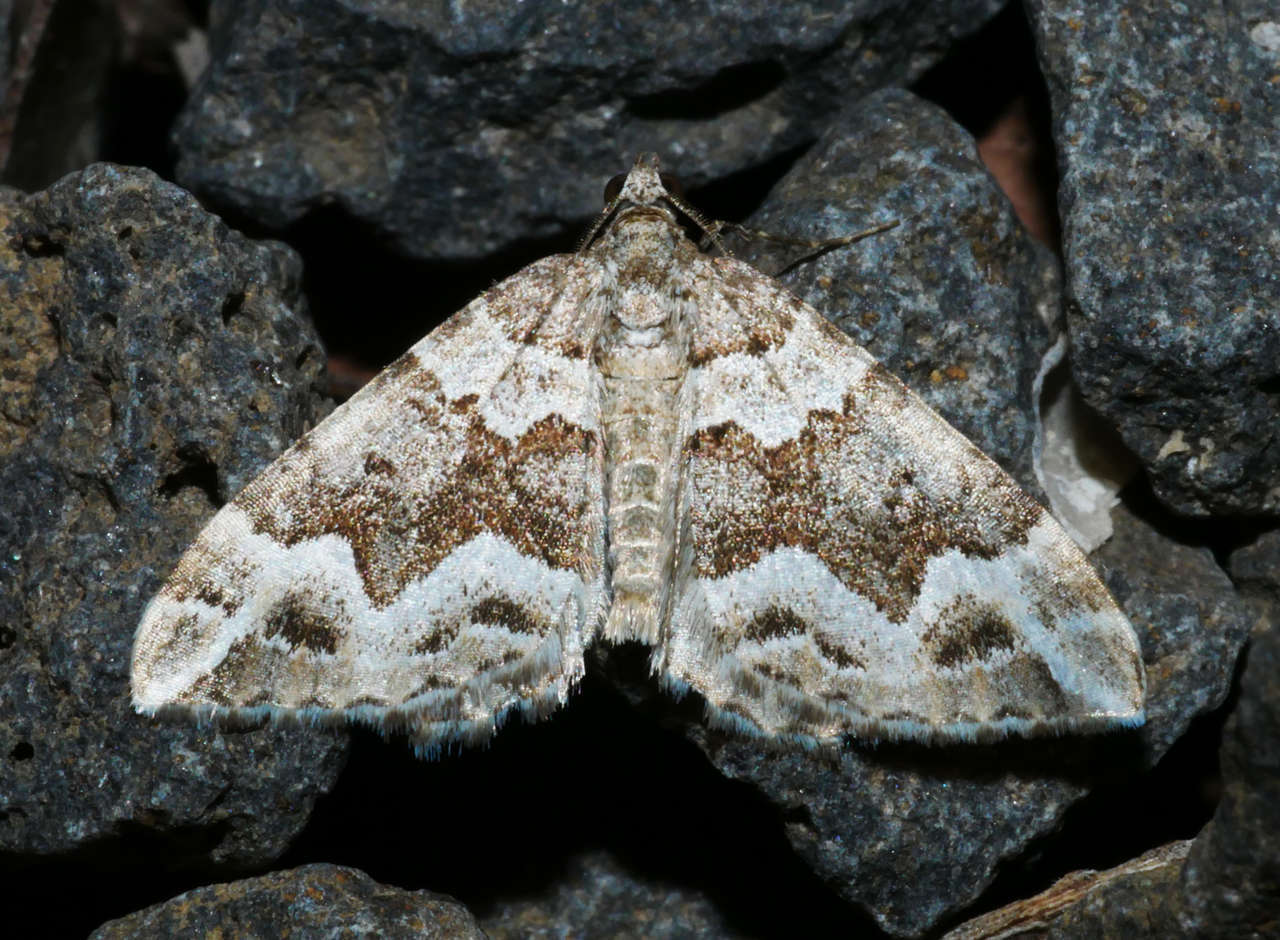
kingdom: Animalia
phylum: Arthropoda
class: Insecta
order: Lepidoptera
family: Geometridae
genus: Chrysolarentia
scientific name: Chrysolarentia actinipha
